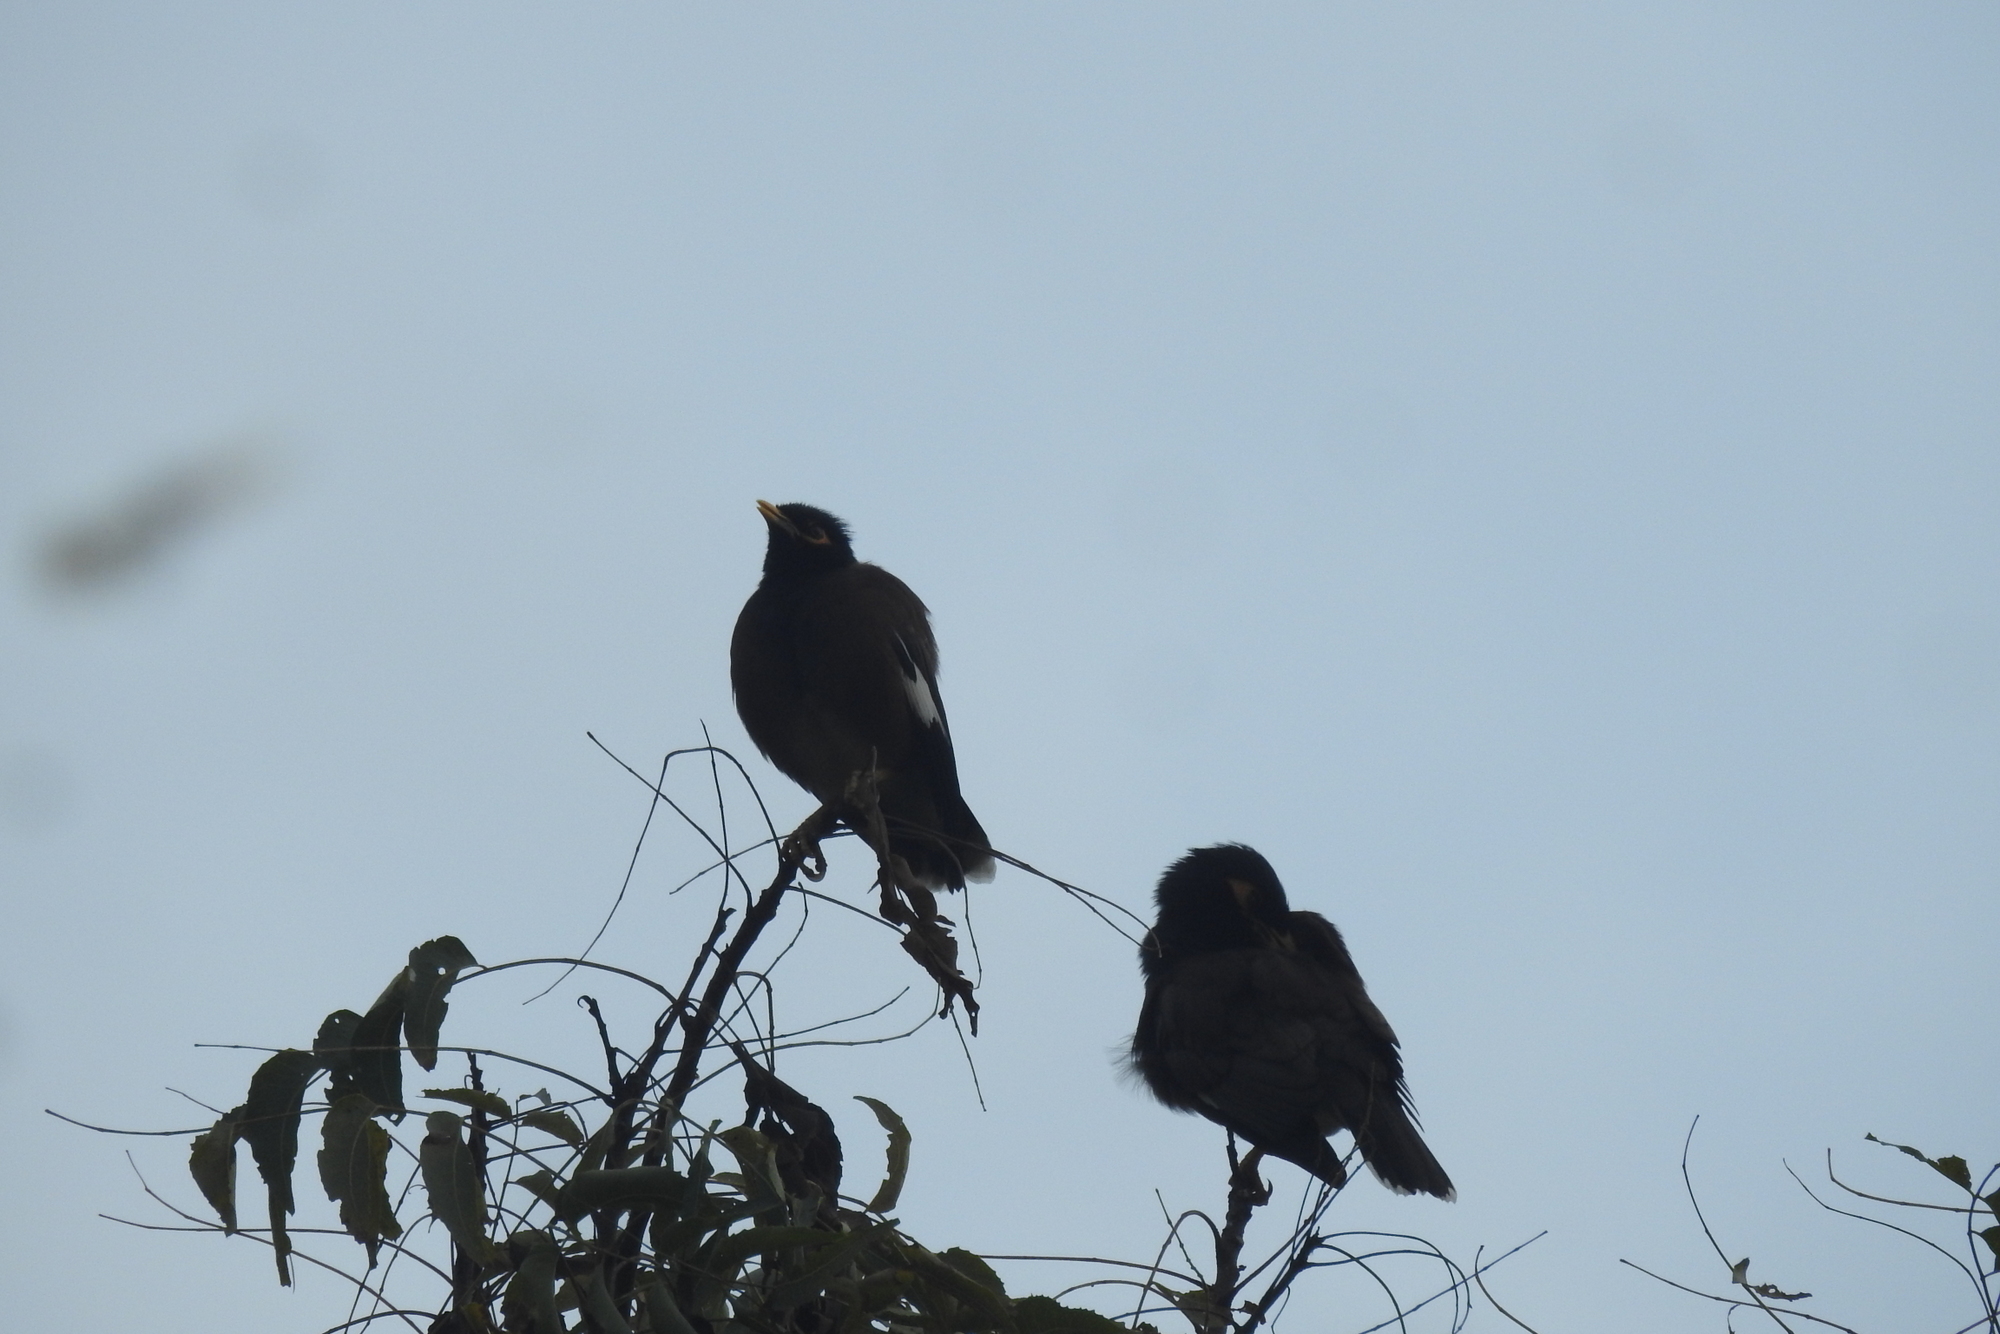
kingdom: Animalia
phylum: Chordata
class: Aves
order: Passeriformes
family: Sturnidae
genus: Acridotheres
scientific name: Acridotheres tristis
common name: Common myna
